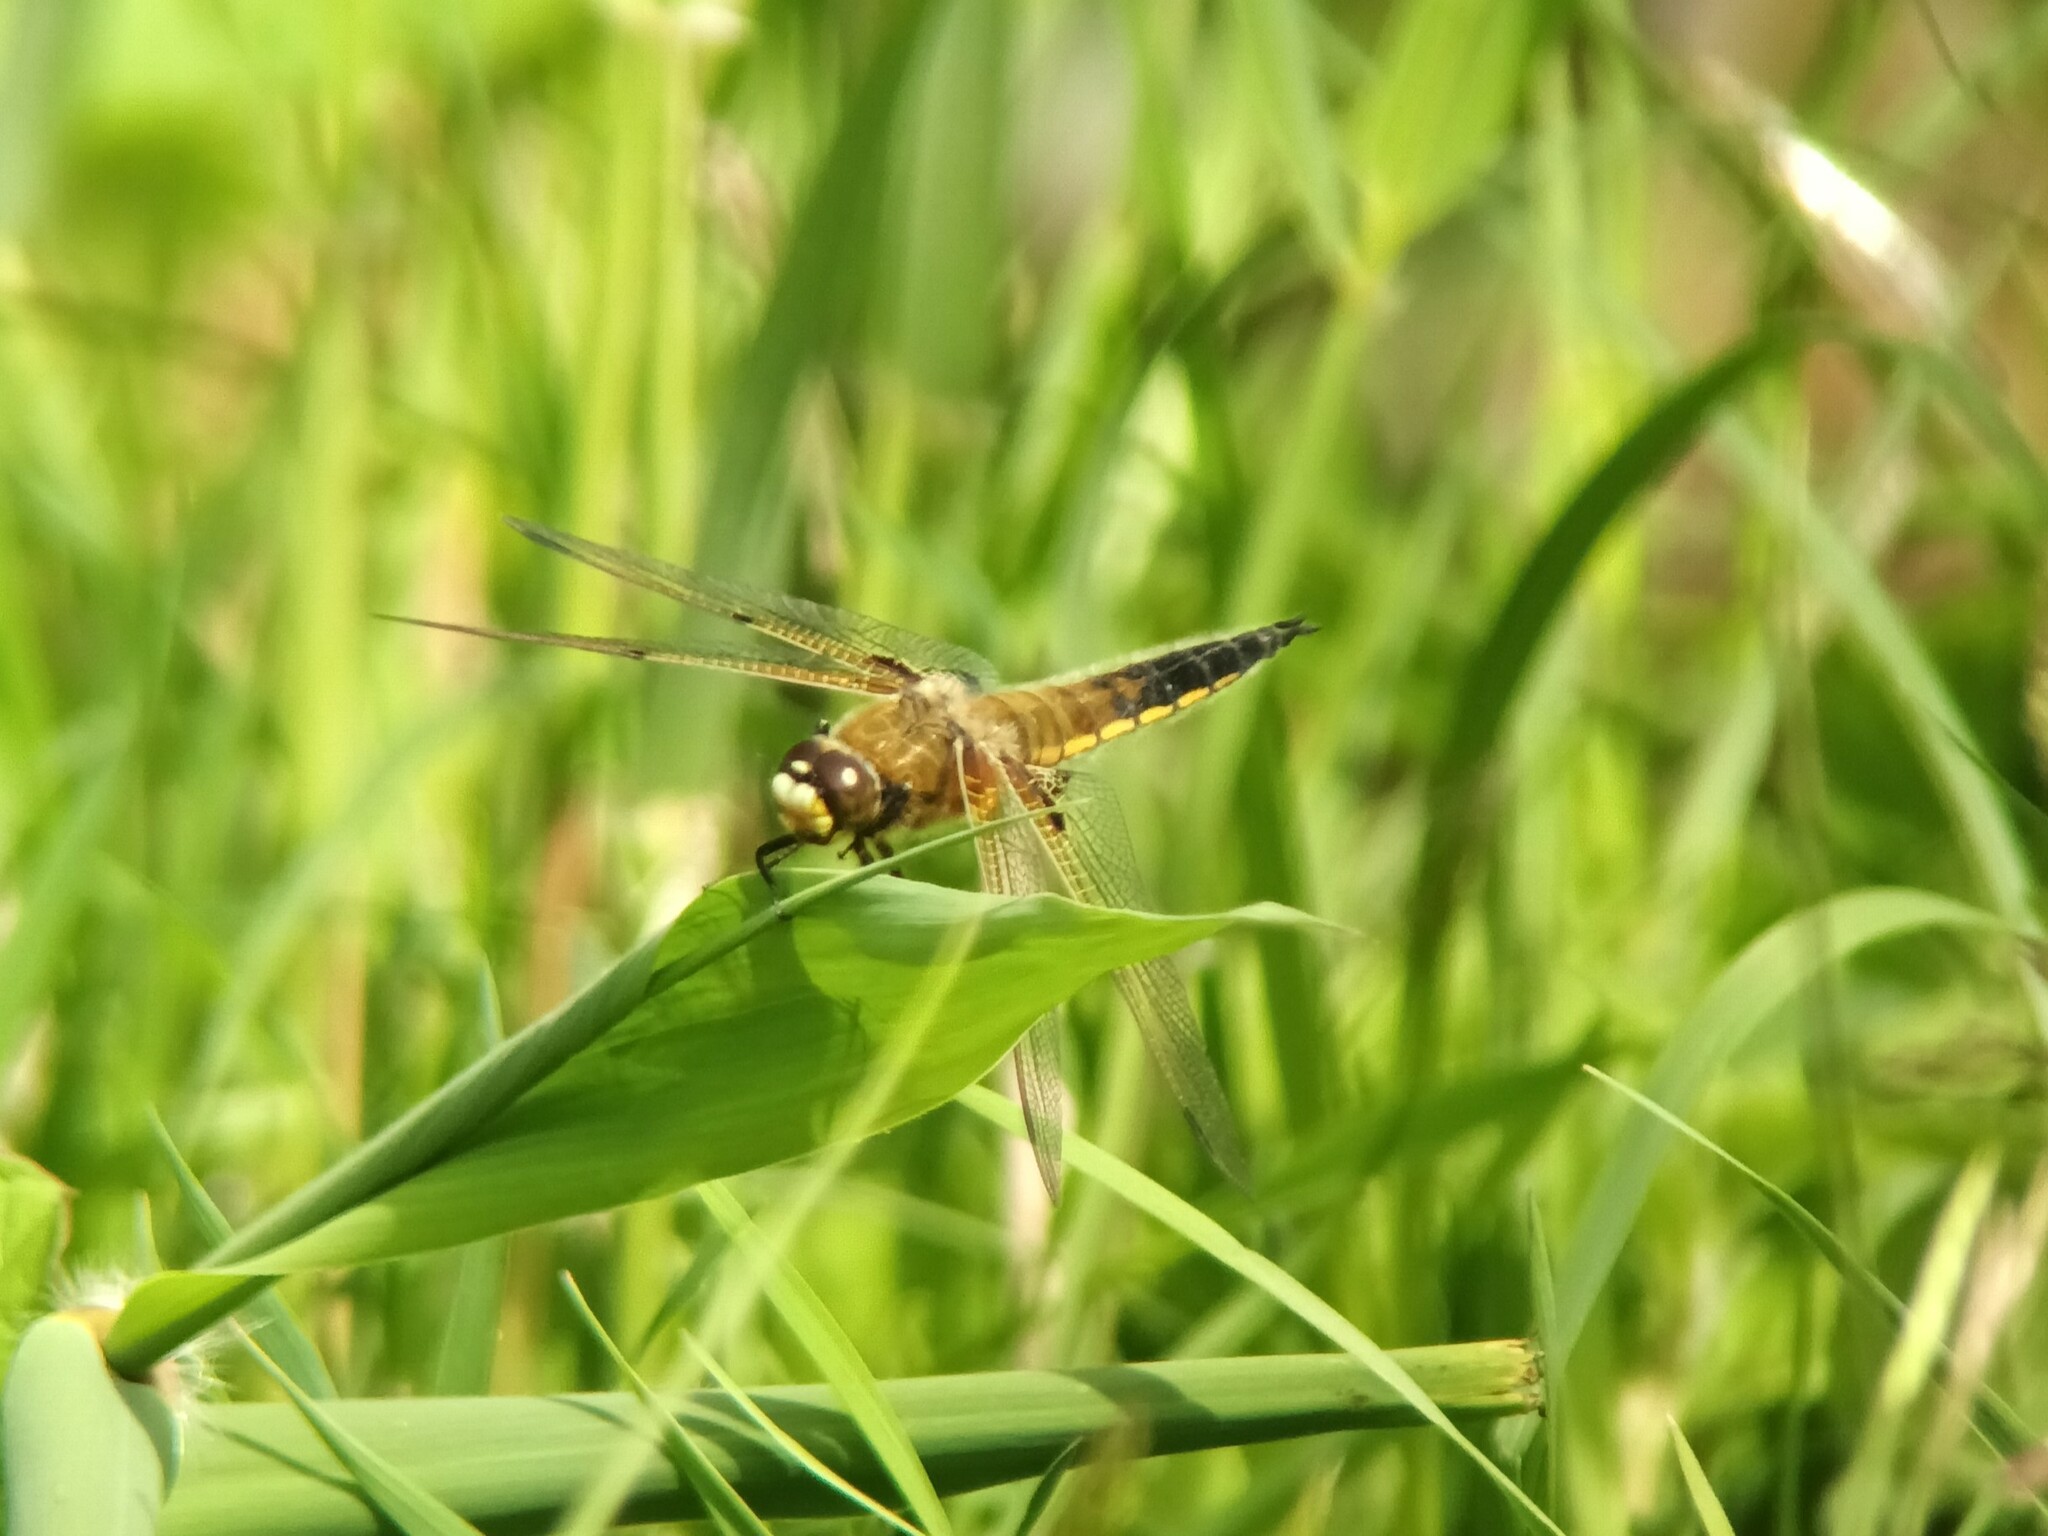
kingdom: Animalia
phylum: Arthropoda
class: Insecta
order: Odonata
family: Libellulidae
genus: Libellula
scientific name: Libellula quadrimaculata
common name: Four-spotted chaser
